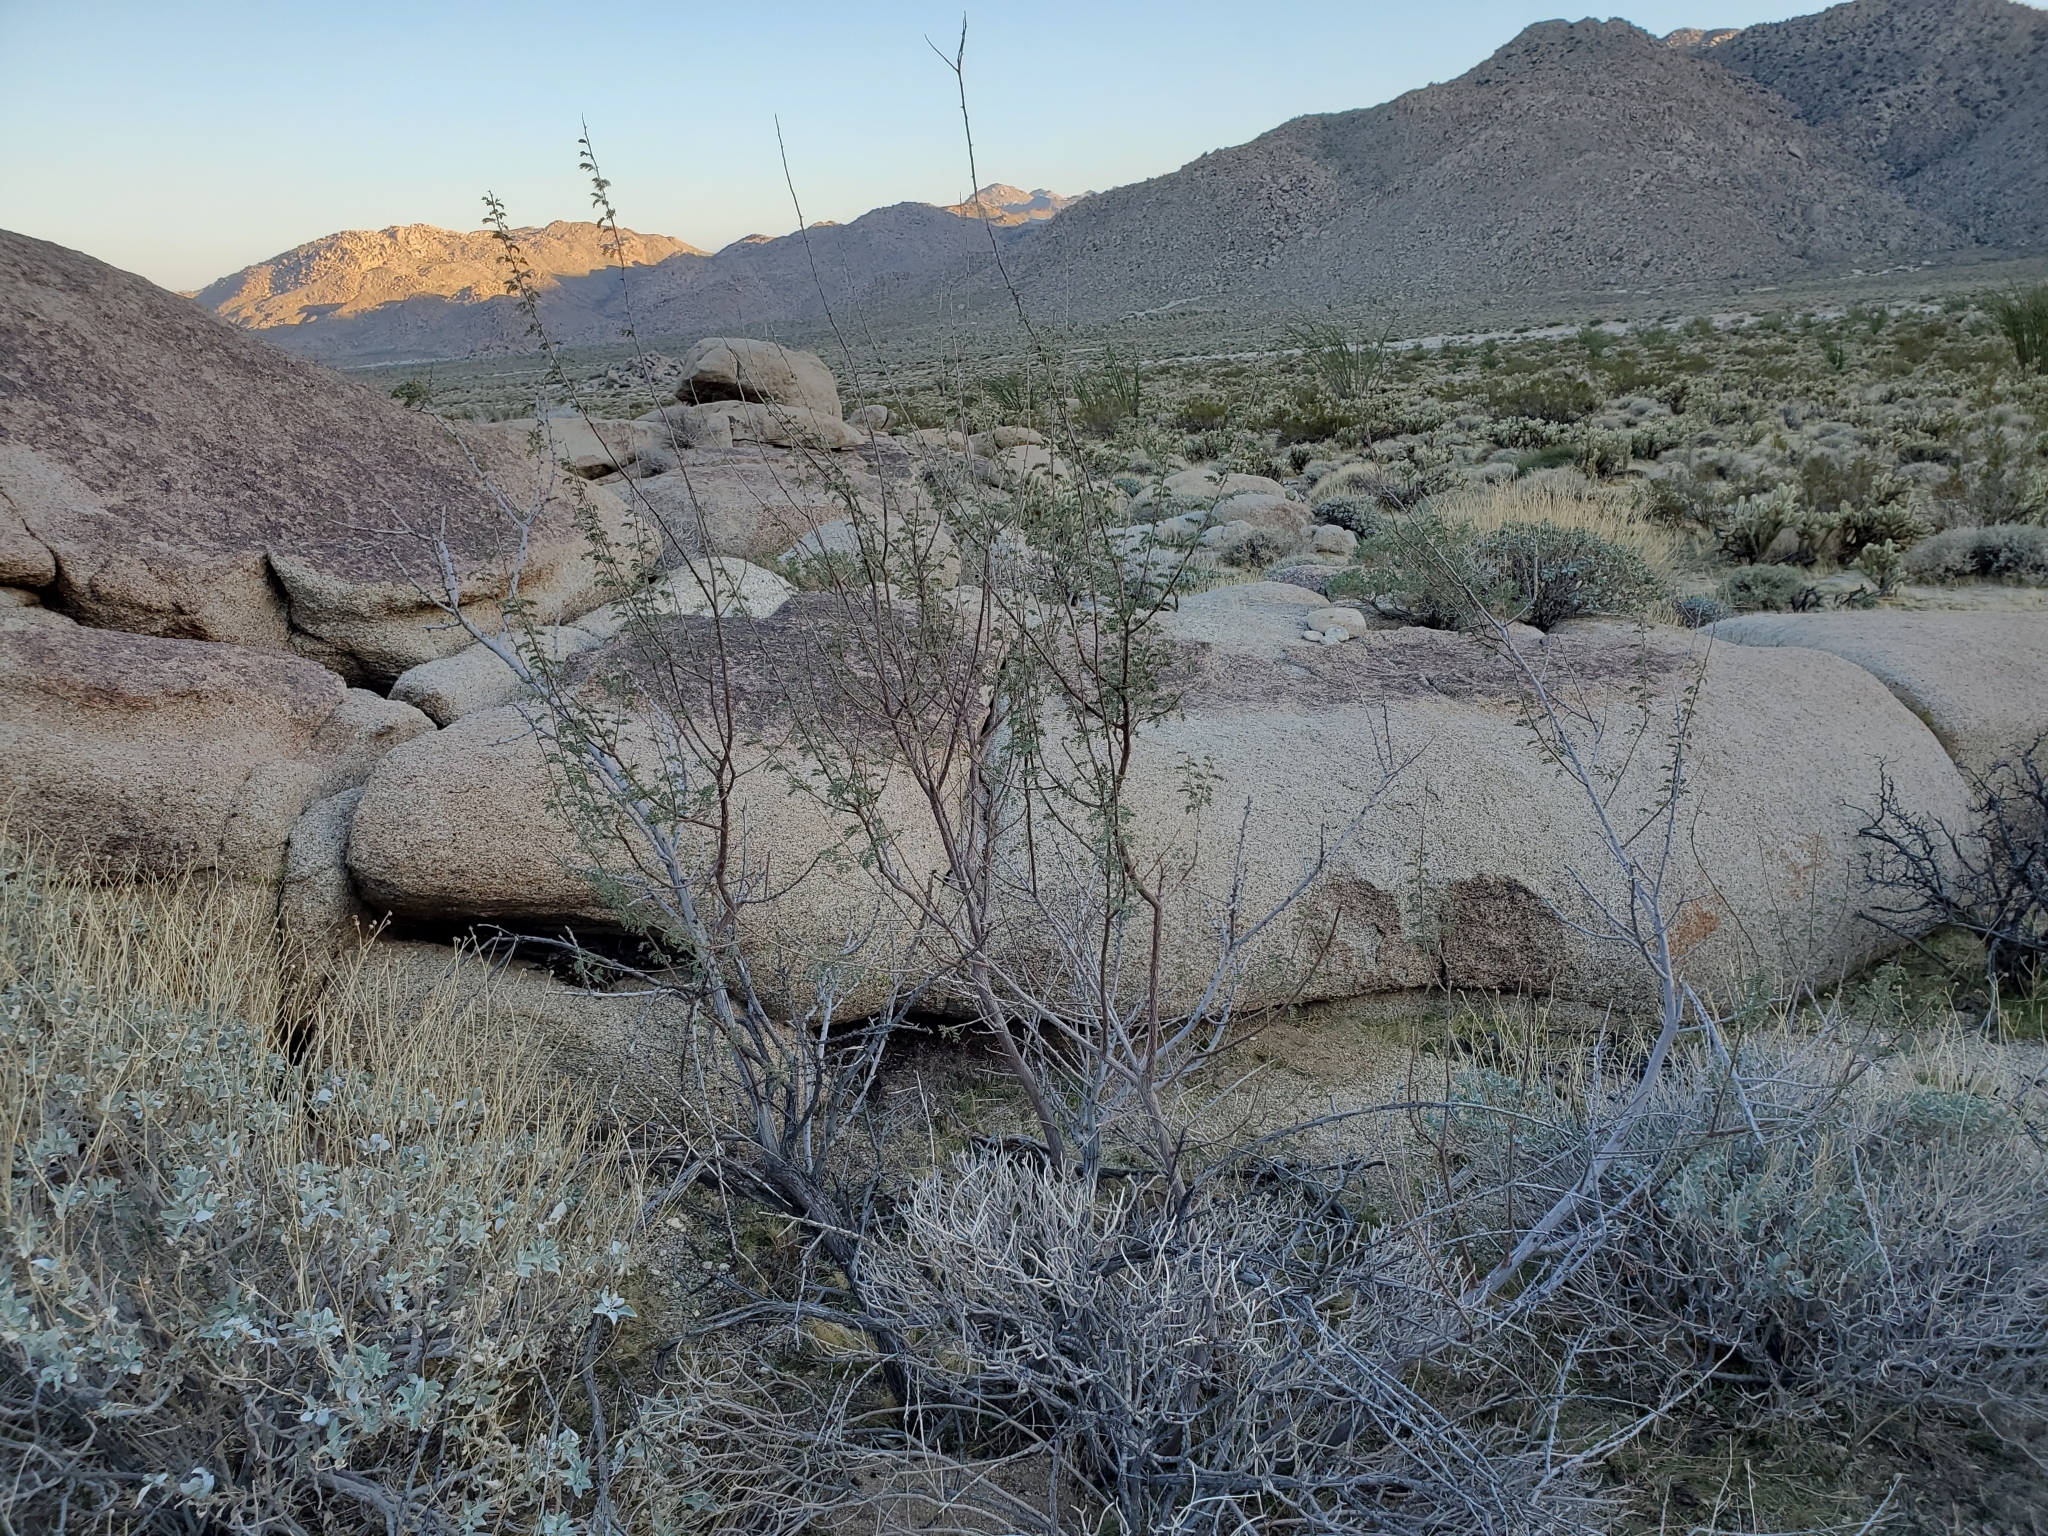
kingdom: Plantae
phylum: Tracheophyta
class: Magnoliopsida
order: Fabales
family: Fabaceae
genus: Senegalia
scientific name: Senegalia greggii
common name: Texas-mimosa
